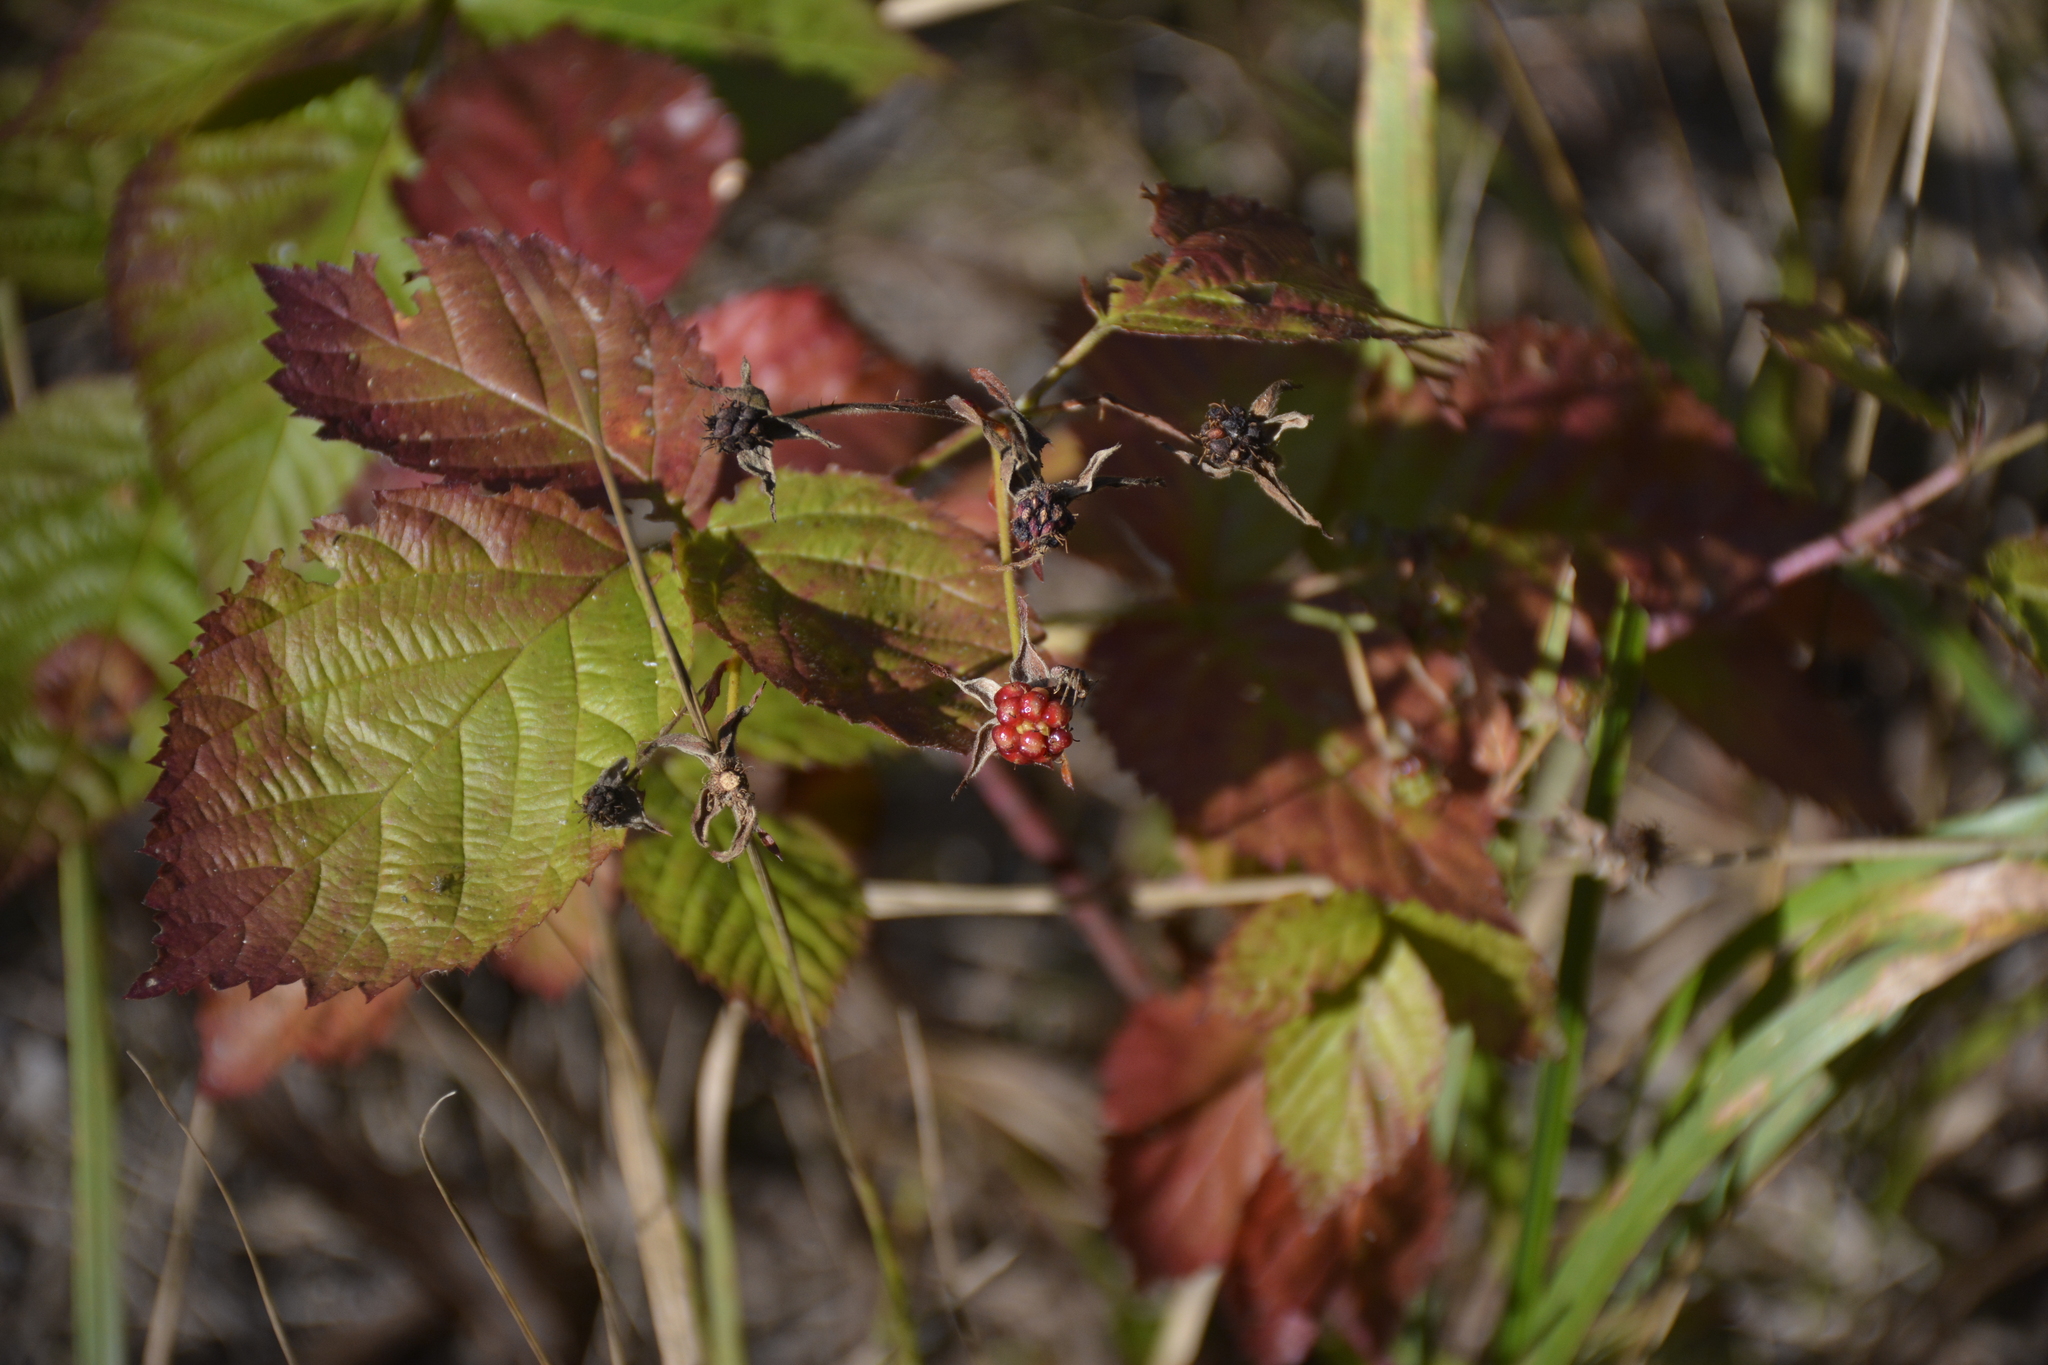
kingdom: Plantae
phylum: Tracheophyta
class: Magnoliopsida
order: Rosales
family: Rosaceae
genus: Rubus
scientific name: Rubus polonicus
